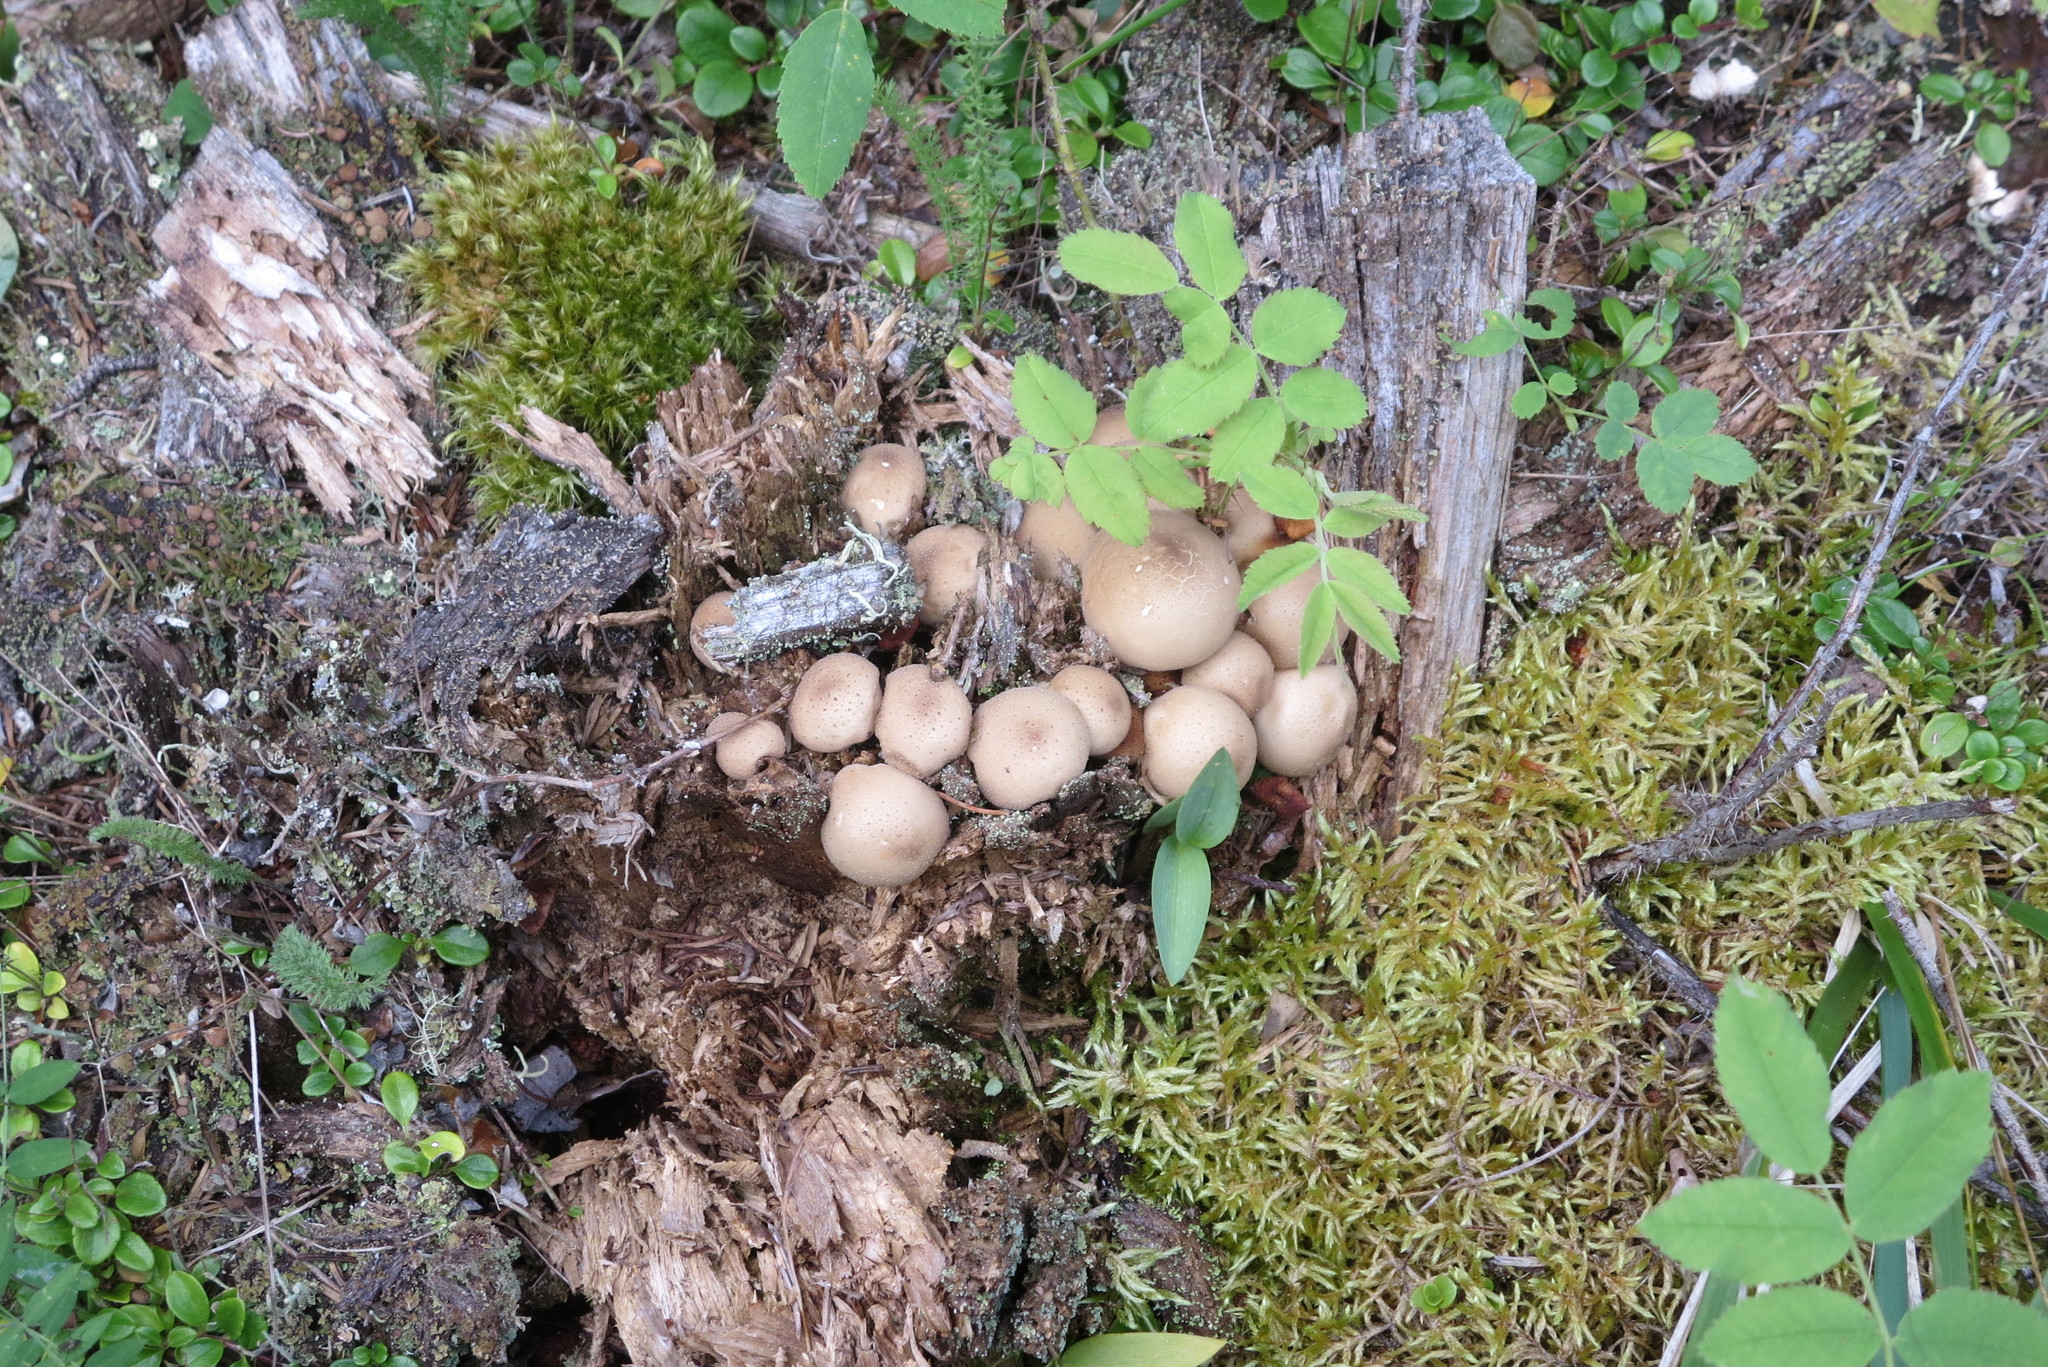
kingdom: Fungi
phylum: Basidiomycota
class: Agaricomycetes
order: Agaricales
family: Lycoperdaceae
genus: Apioperdon
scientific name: Apioperdon pyriforme
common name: Pear-shaped puffball
